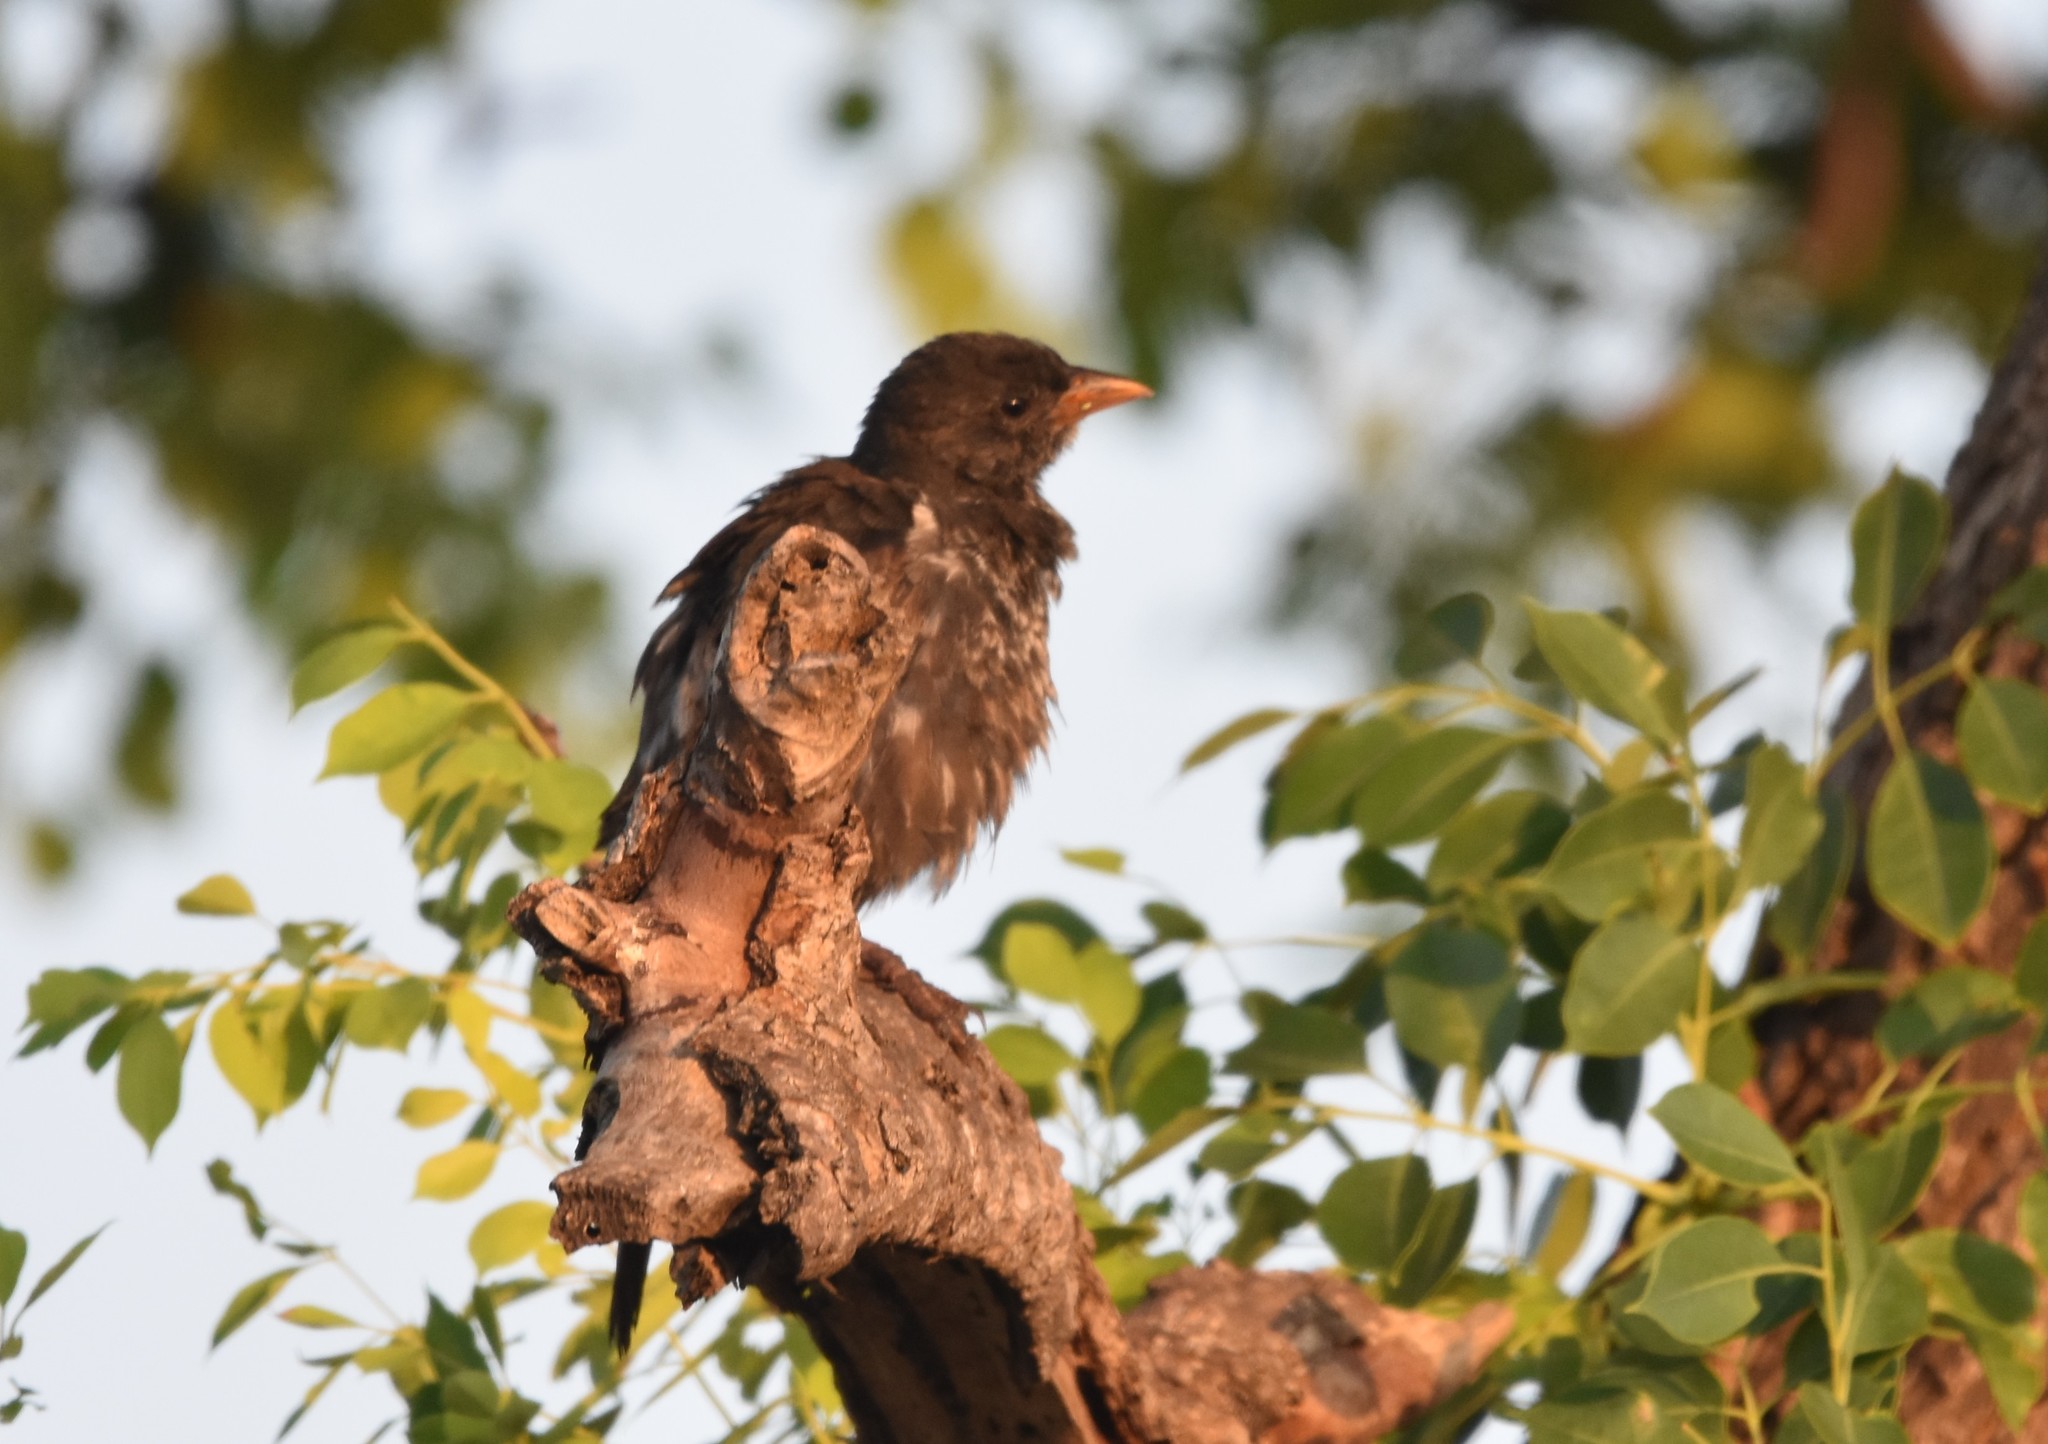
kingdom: Animalia
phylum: Chordata
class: Aves
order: Passeriformes
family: Ploceidae
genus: Bubalornis
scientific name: Bubalornis niger
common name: Red-billed buffalo weaver
